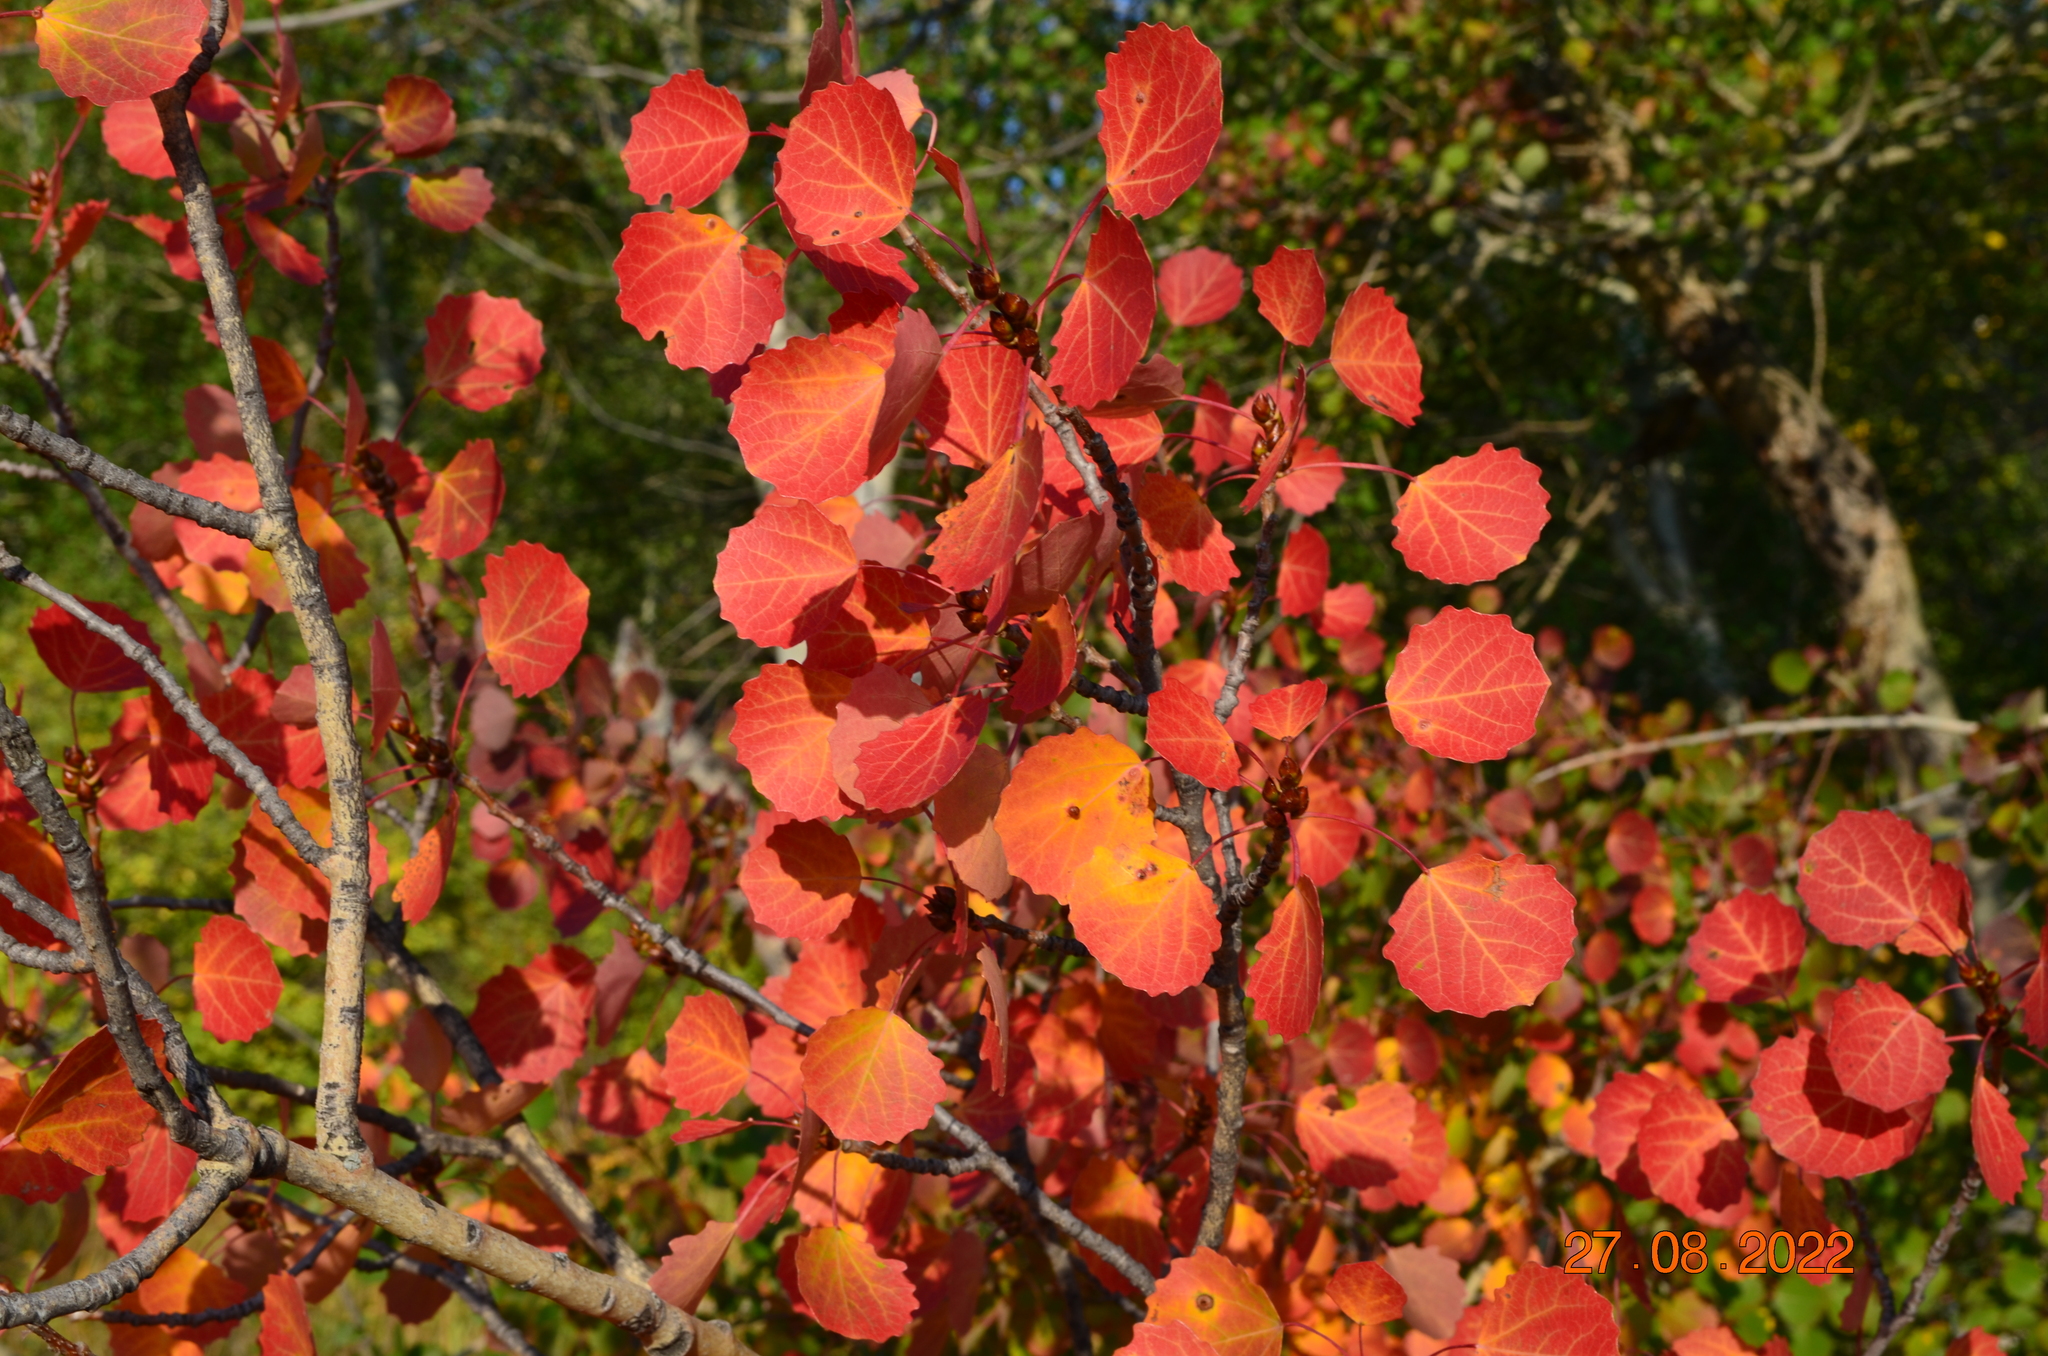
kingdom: Plantae
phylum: Tracheophyta
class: Magnoliopsida
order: Malpighiales
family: Salicaceae
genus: Populus
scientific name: Populus tremula
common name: European aspen
